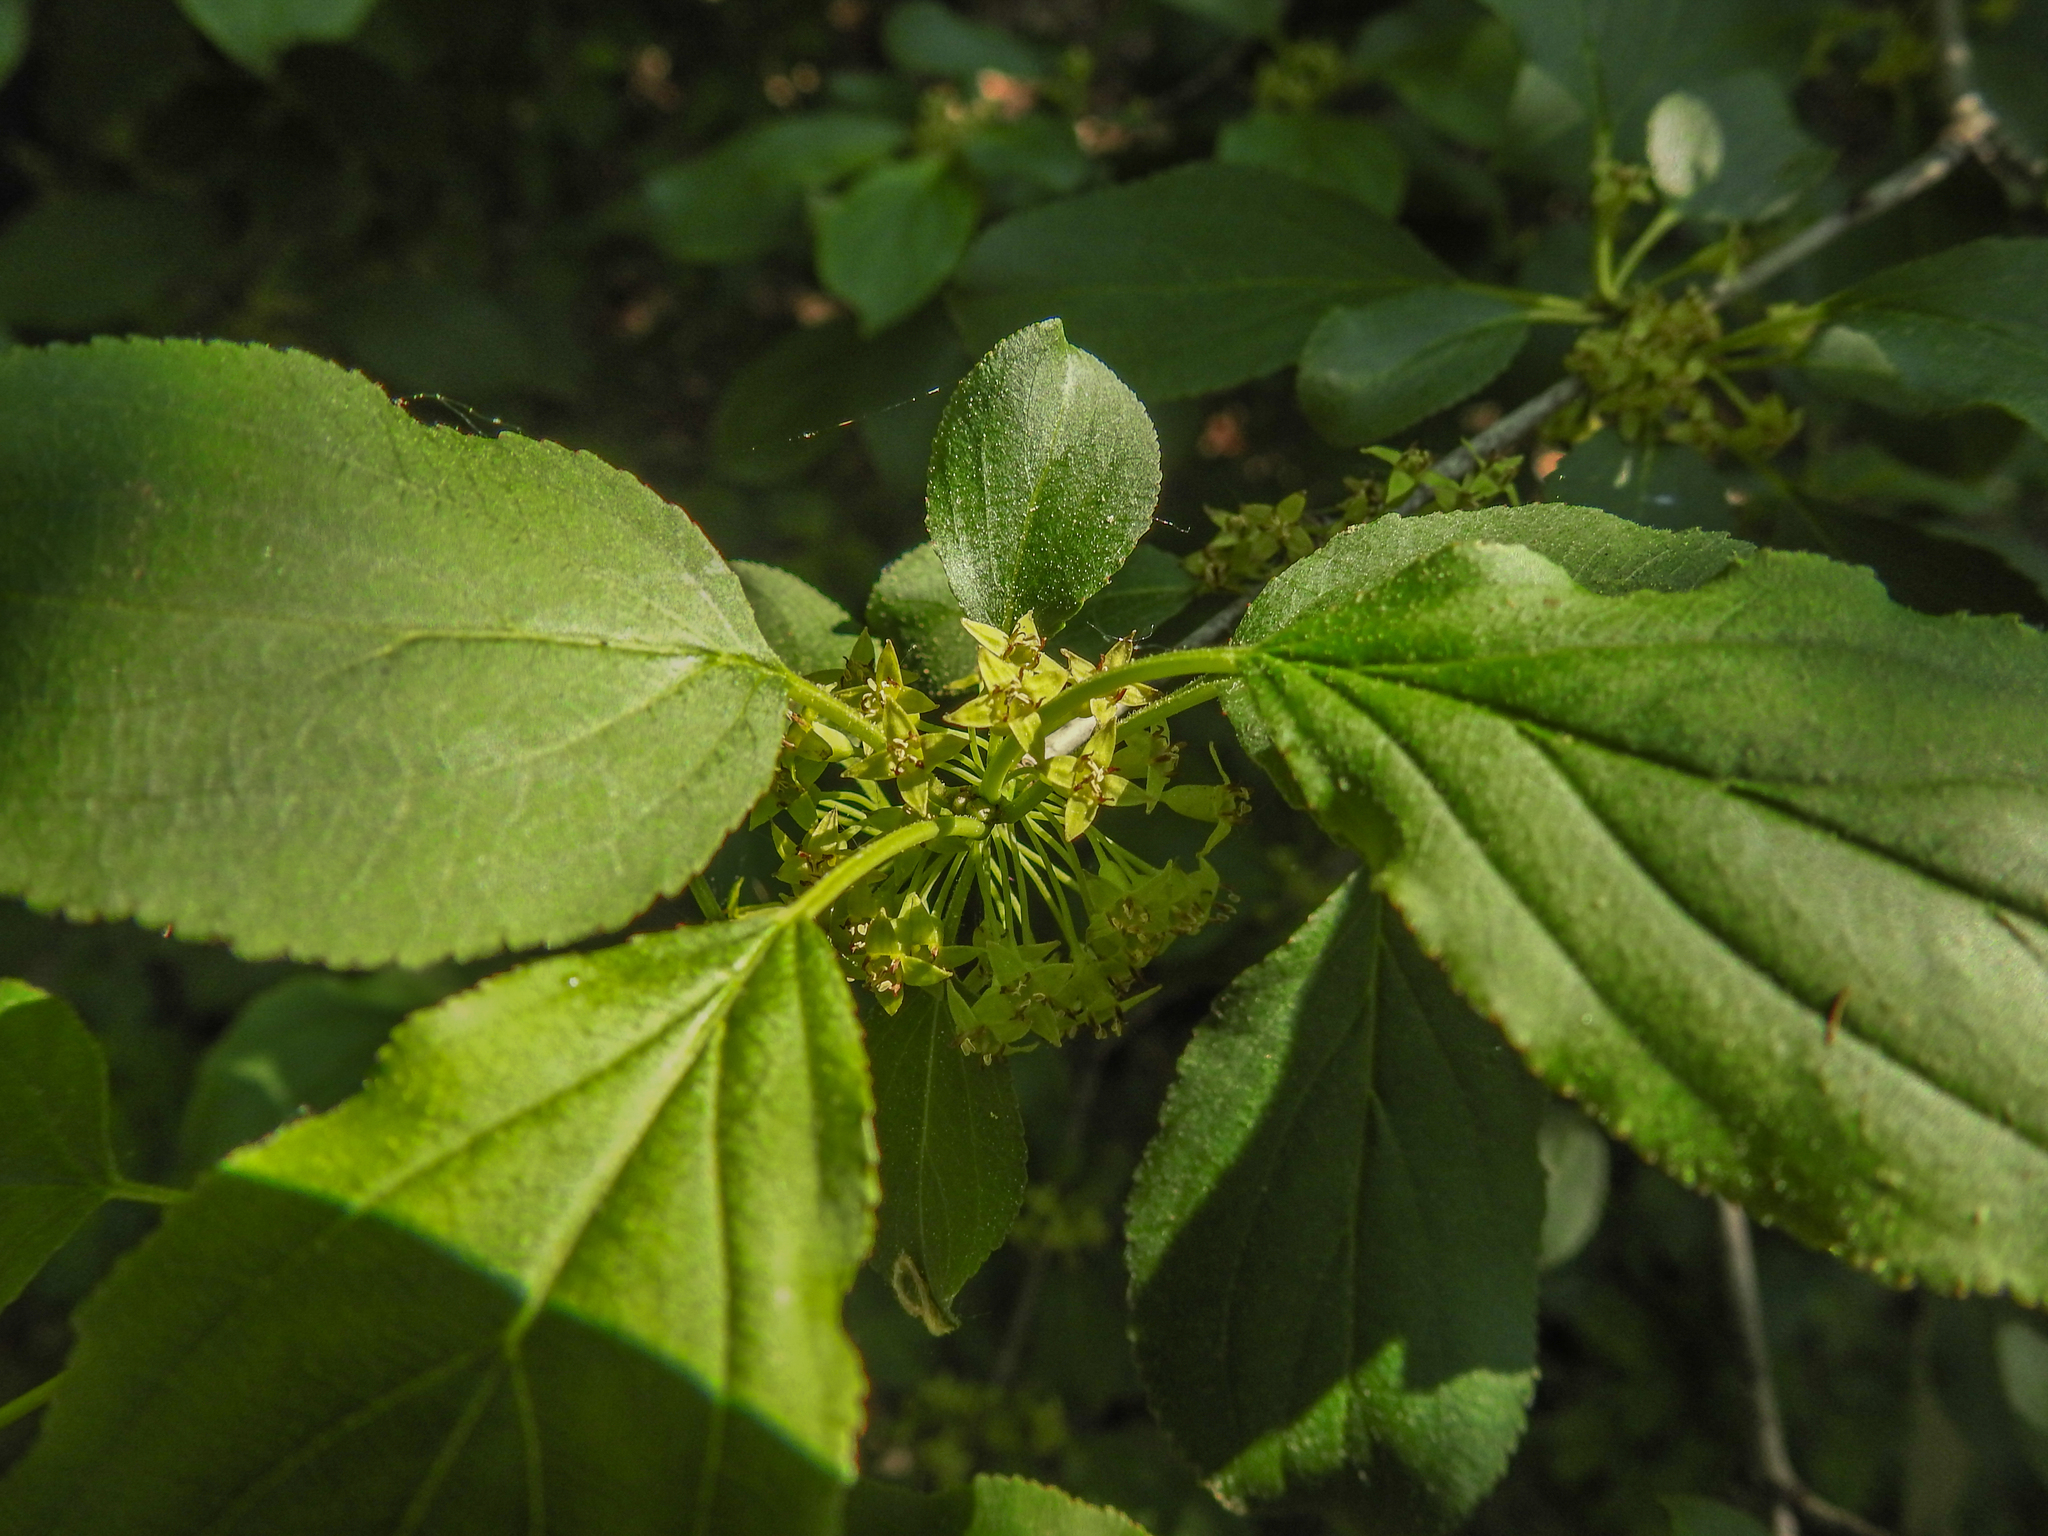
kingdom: Plantae
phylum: Tracheophyta
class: Magnoliopsida
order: Rosales
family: Rhamnaceae
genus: Rhamnus
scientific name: Rhamnus cathartica
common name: Common buckthorn
